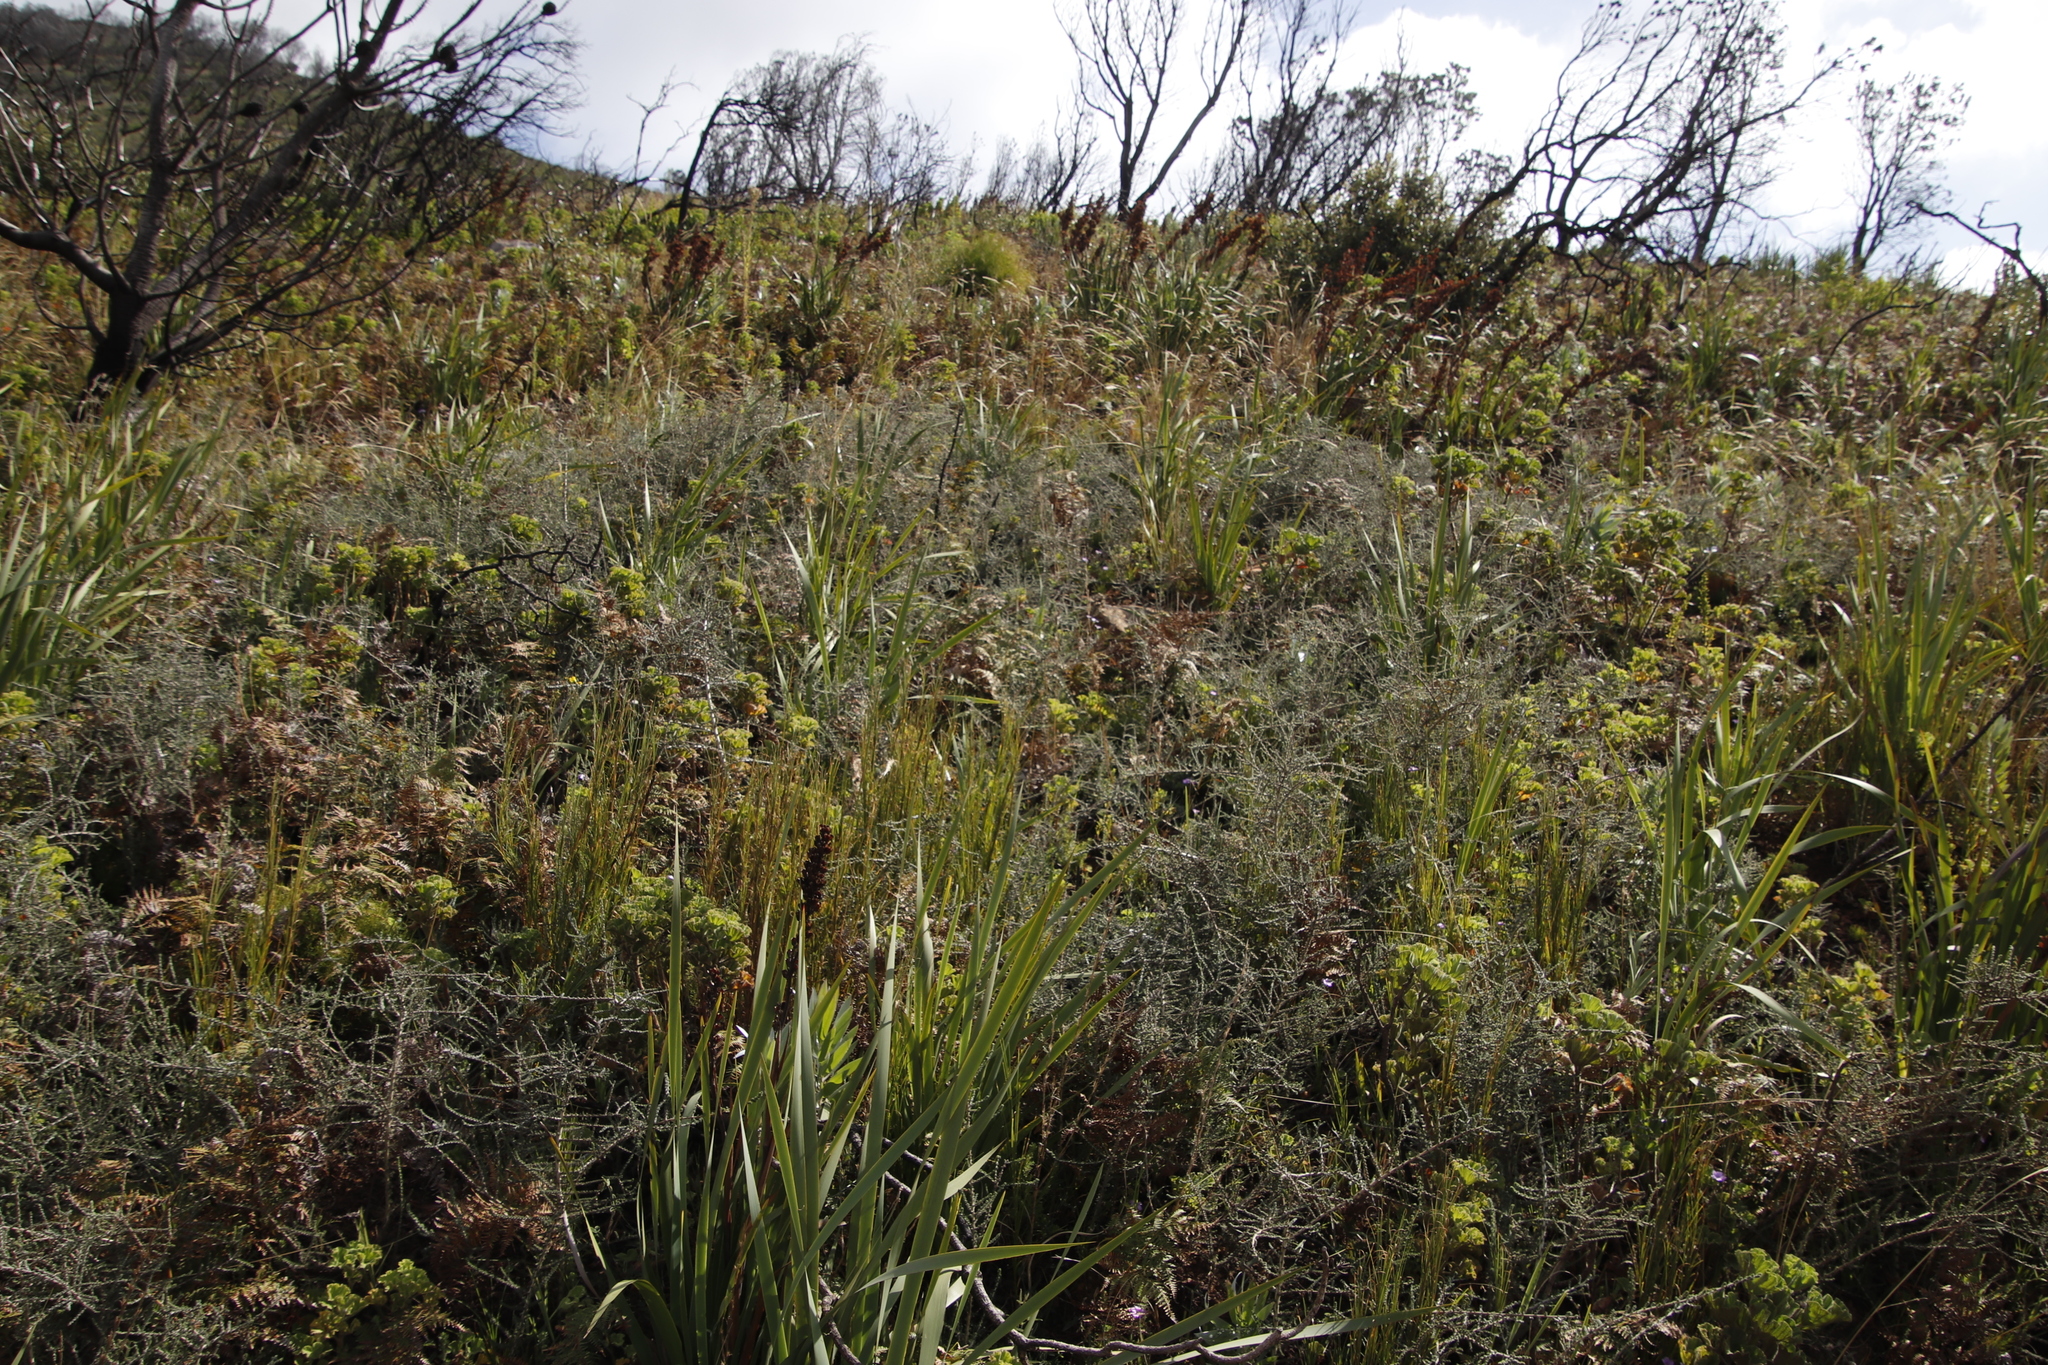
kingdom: Plantae
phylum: Tracheophyta
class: Magnoliopsida
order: Fabales
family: Fabaceae
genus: Aspalathus
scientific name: Aspalathus hispida
